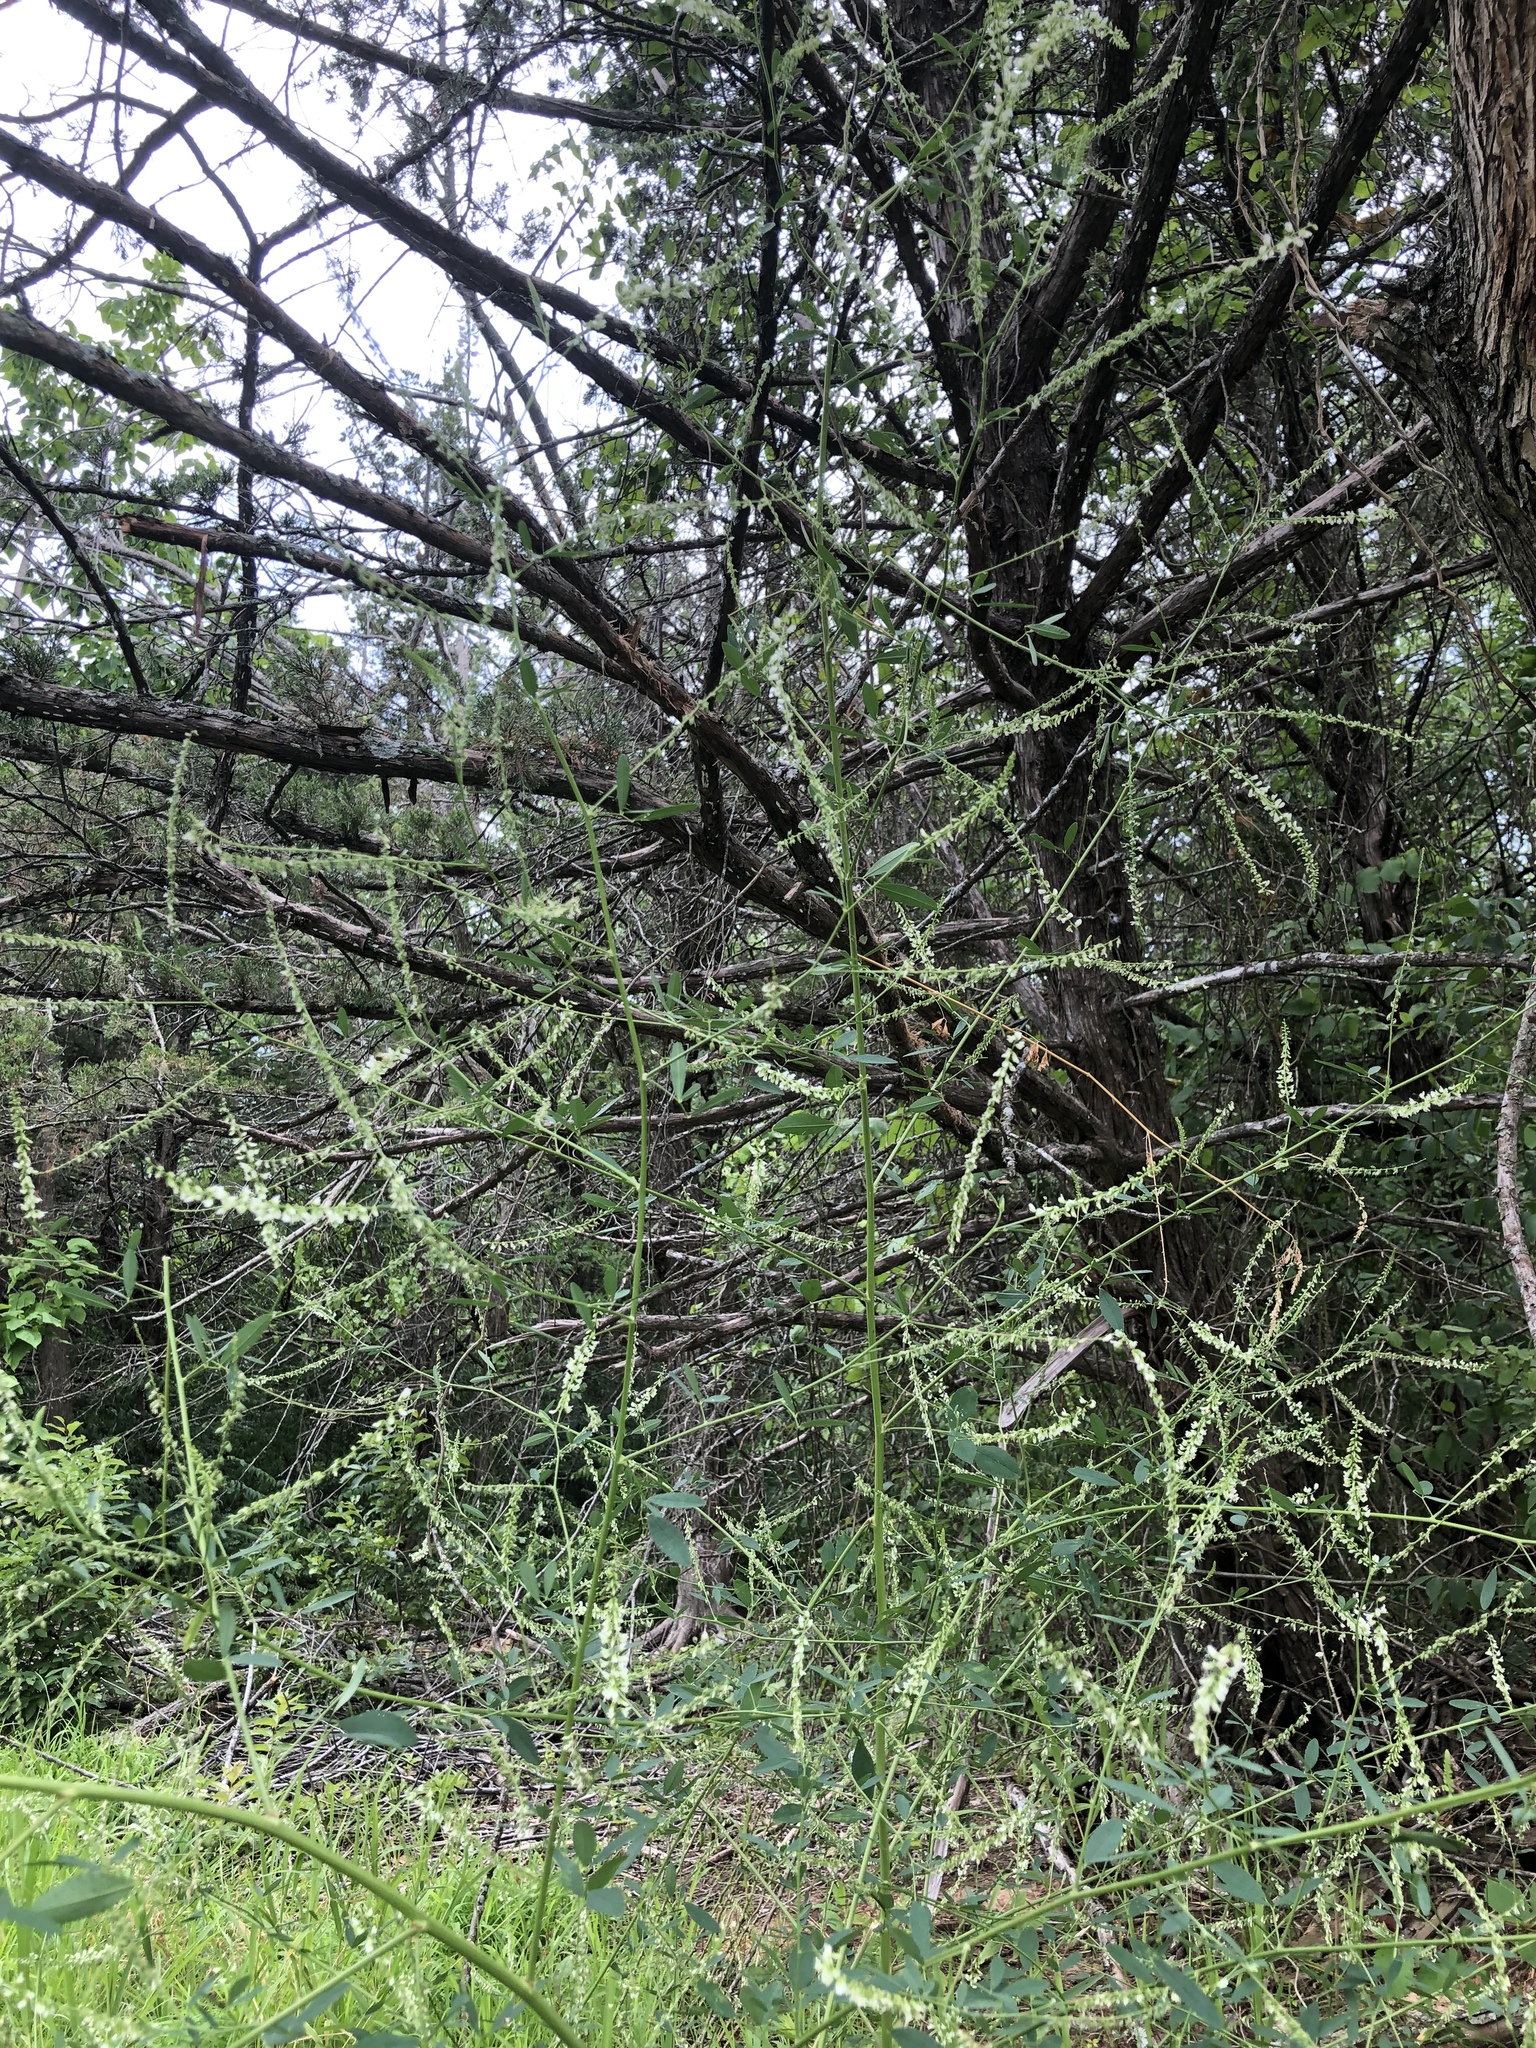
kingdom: Plantae
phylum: Tracheophyta
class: Magnoliopsida
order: Fabales
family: Fabaceae
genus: Melilotus
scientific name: Melilotus albus
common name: White melilot
